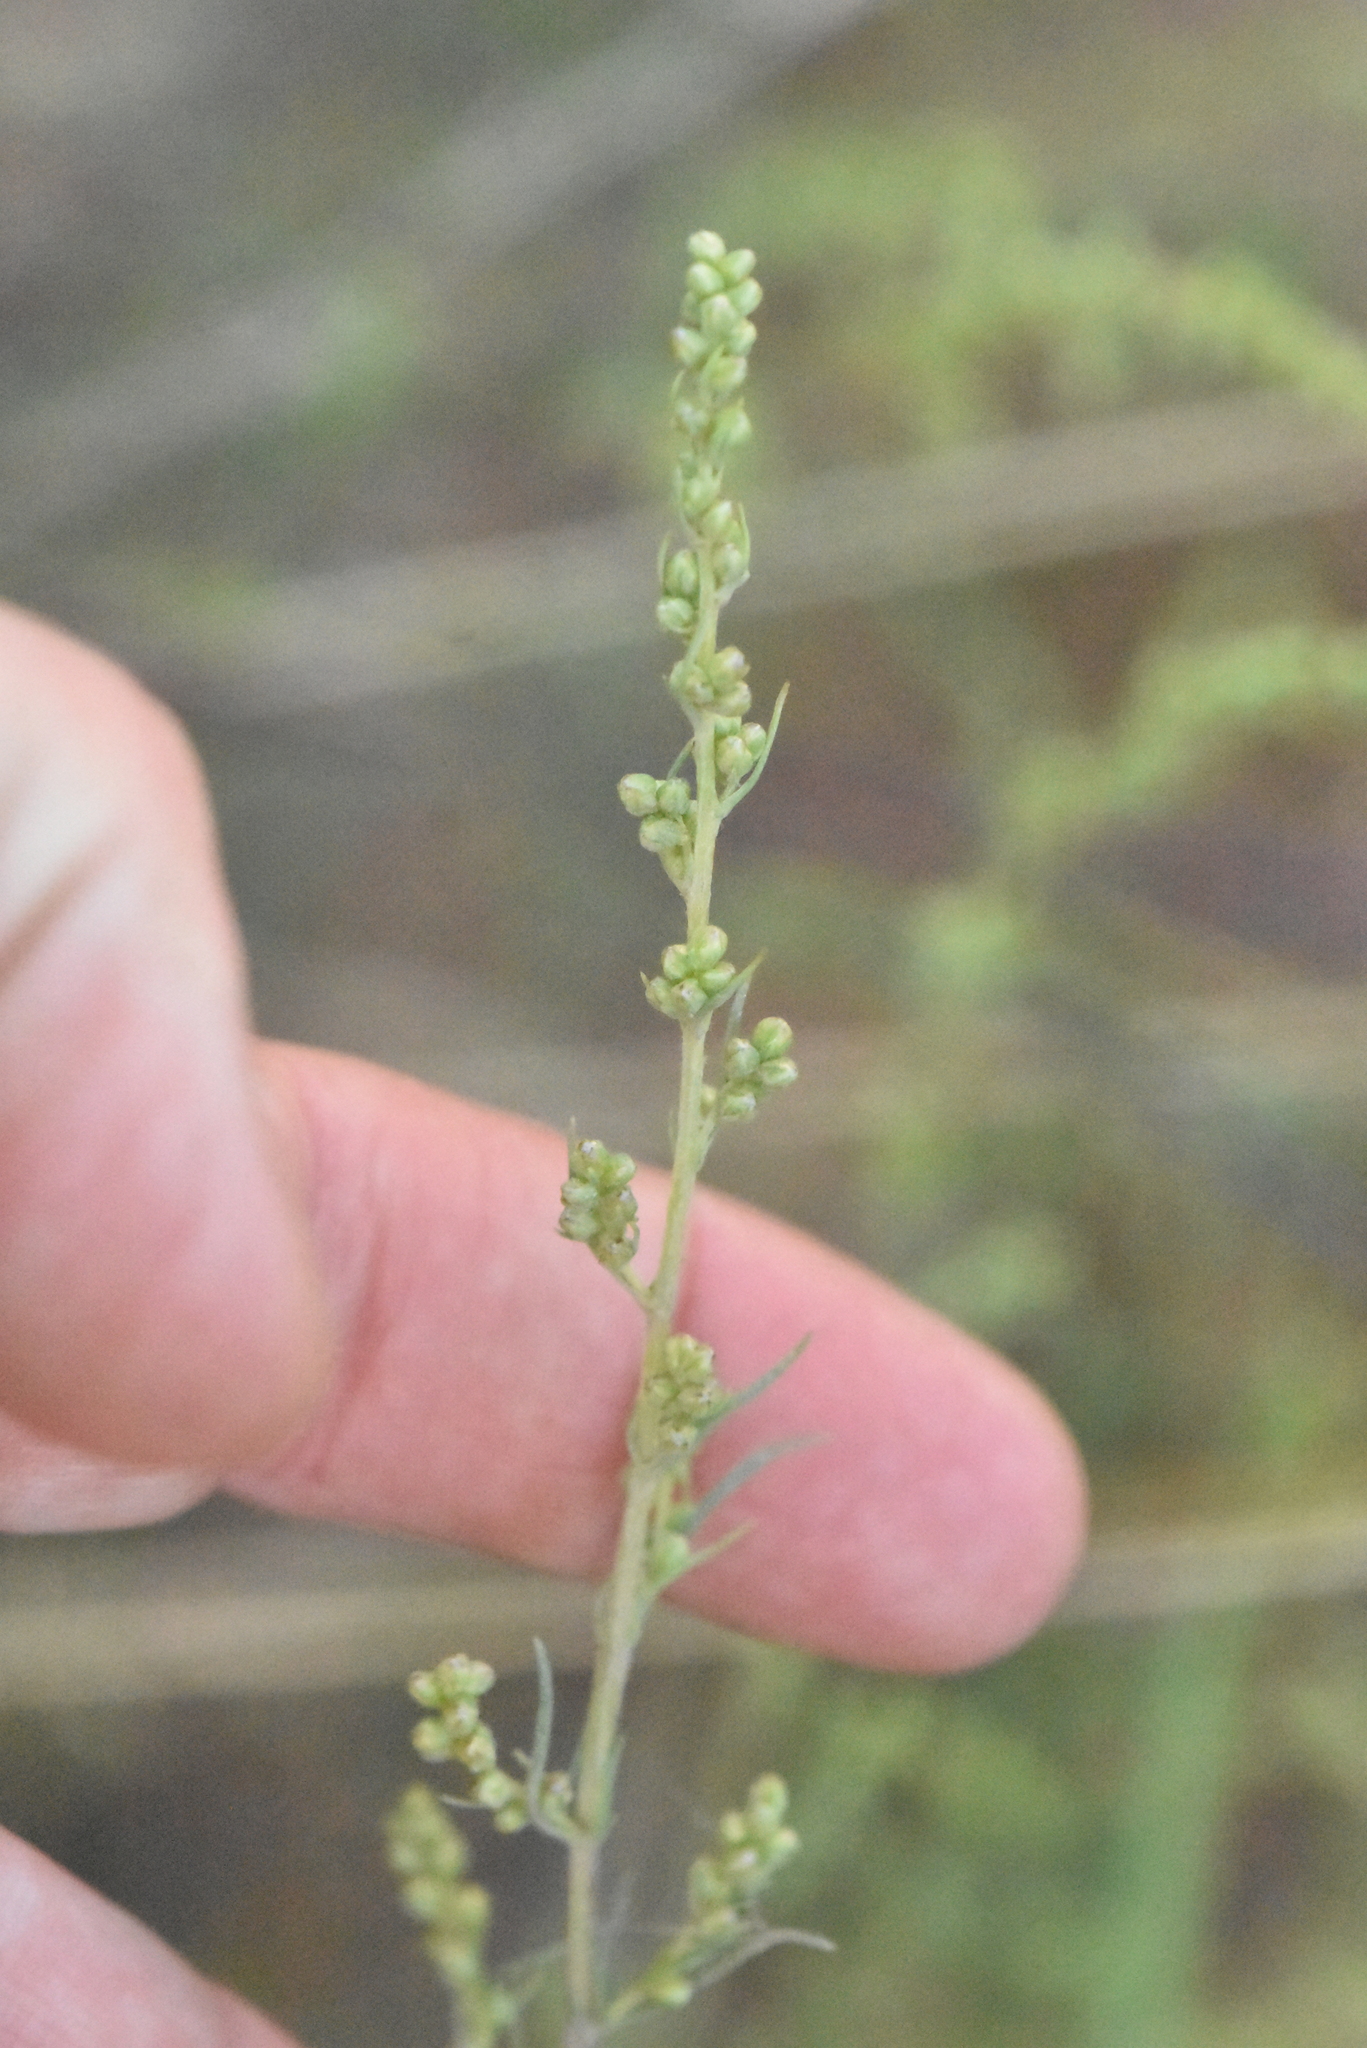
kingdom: Plantae
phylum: Tracheophyta
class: Magnoliopsida
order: Asterales
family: Asteraceae
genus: Artemisia
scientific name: Artemisia campestris
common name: Field wormwood
